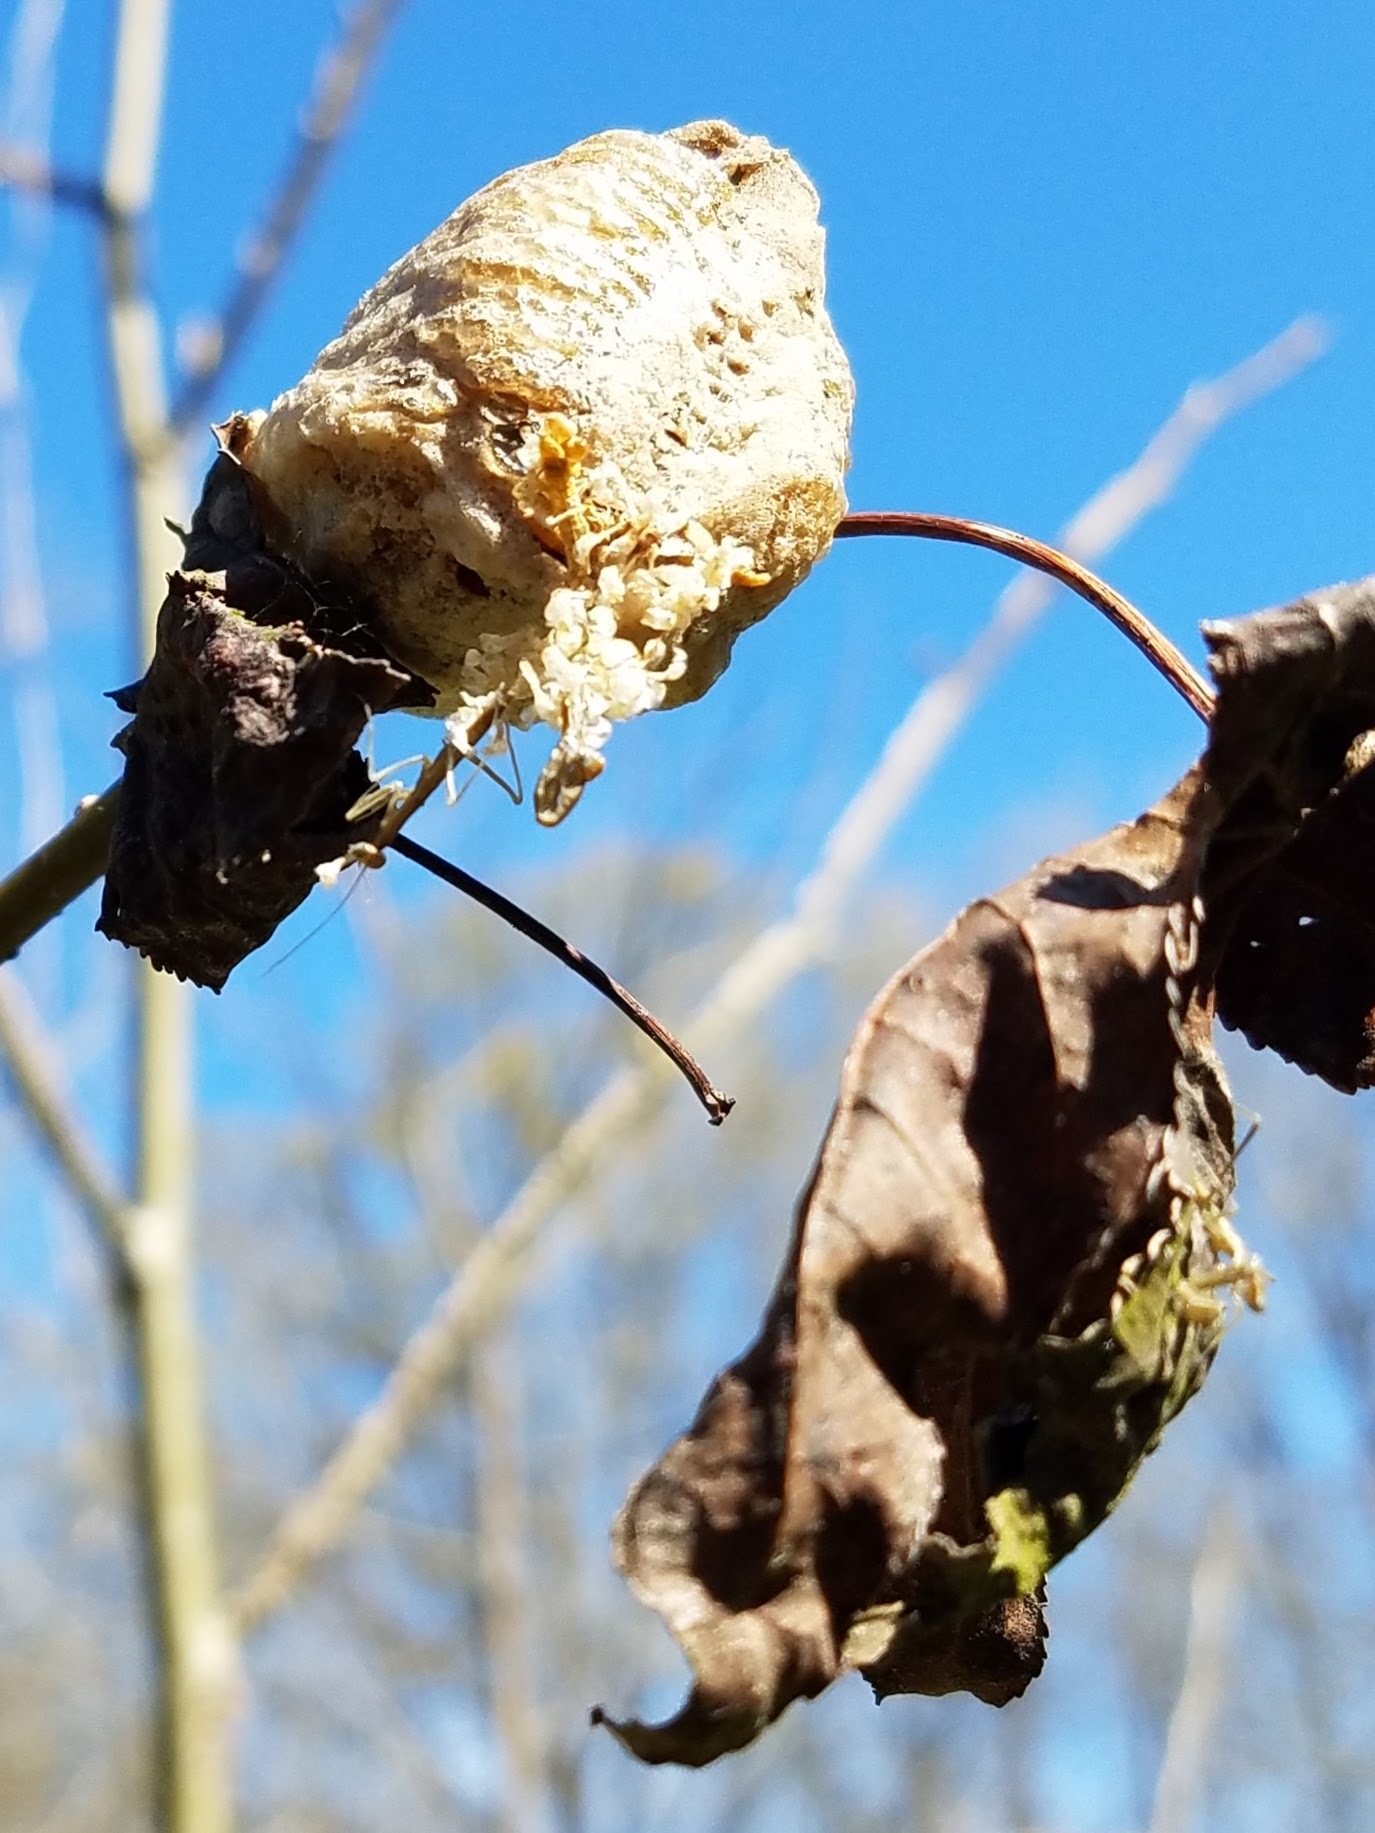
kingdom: Animalia
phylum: Arthropoda
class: Insecta
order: Mantodea
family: Mantidae
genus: Tenodera
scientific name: Tenodera sinensis
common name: Chinese mantis
